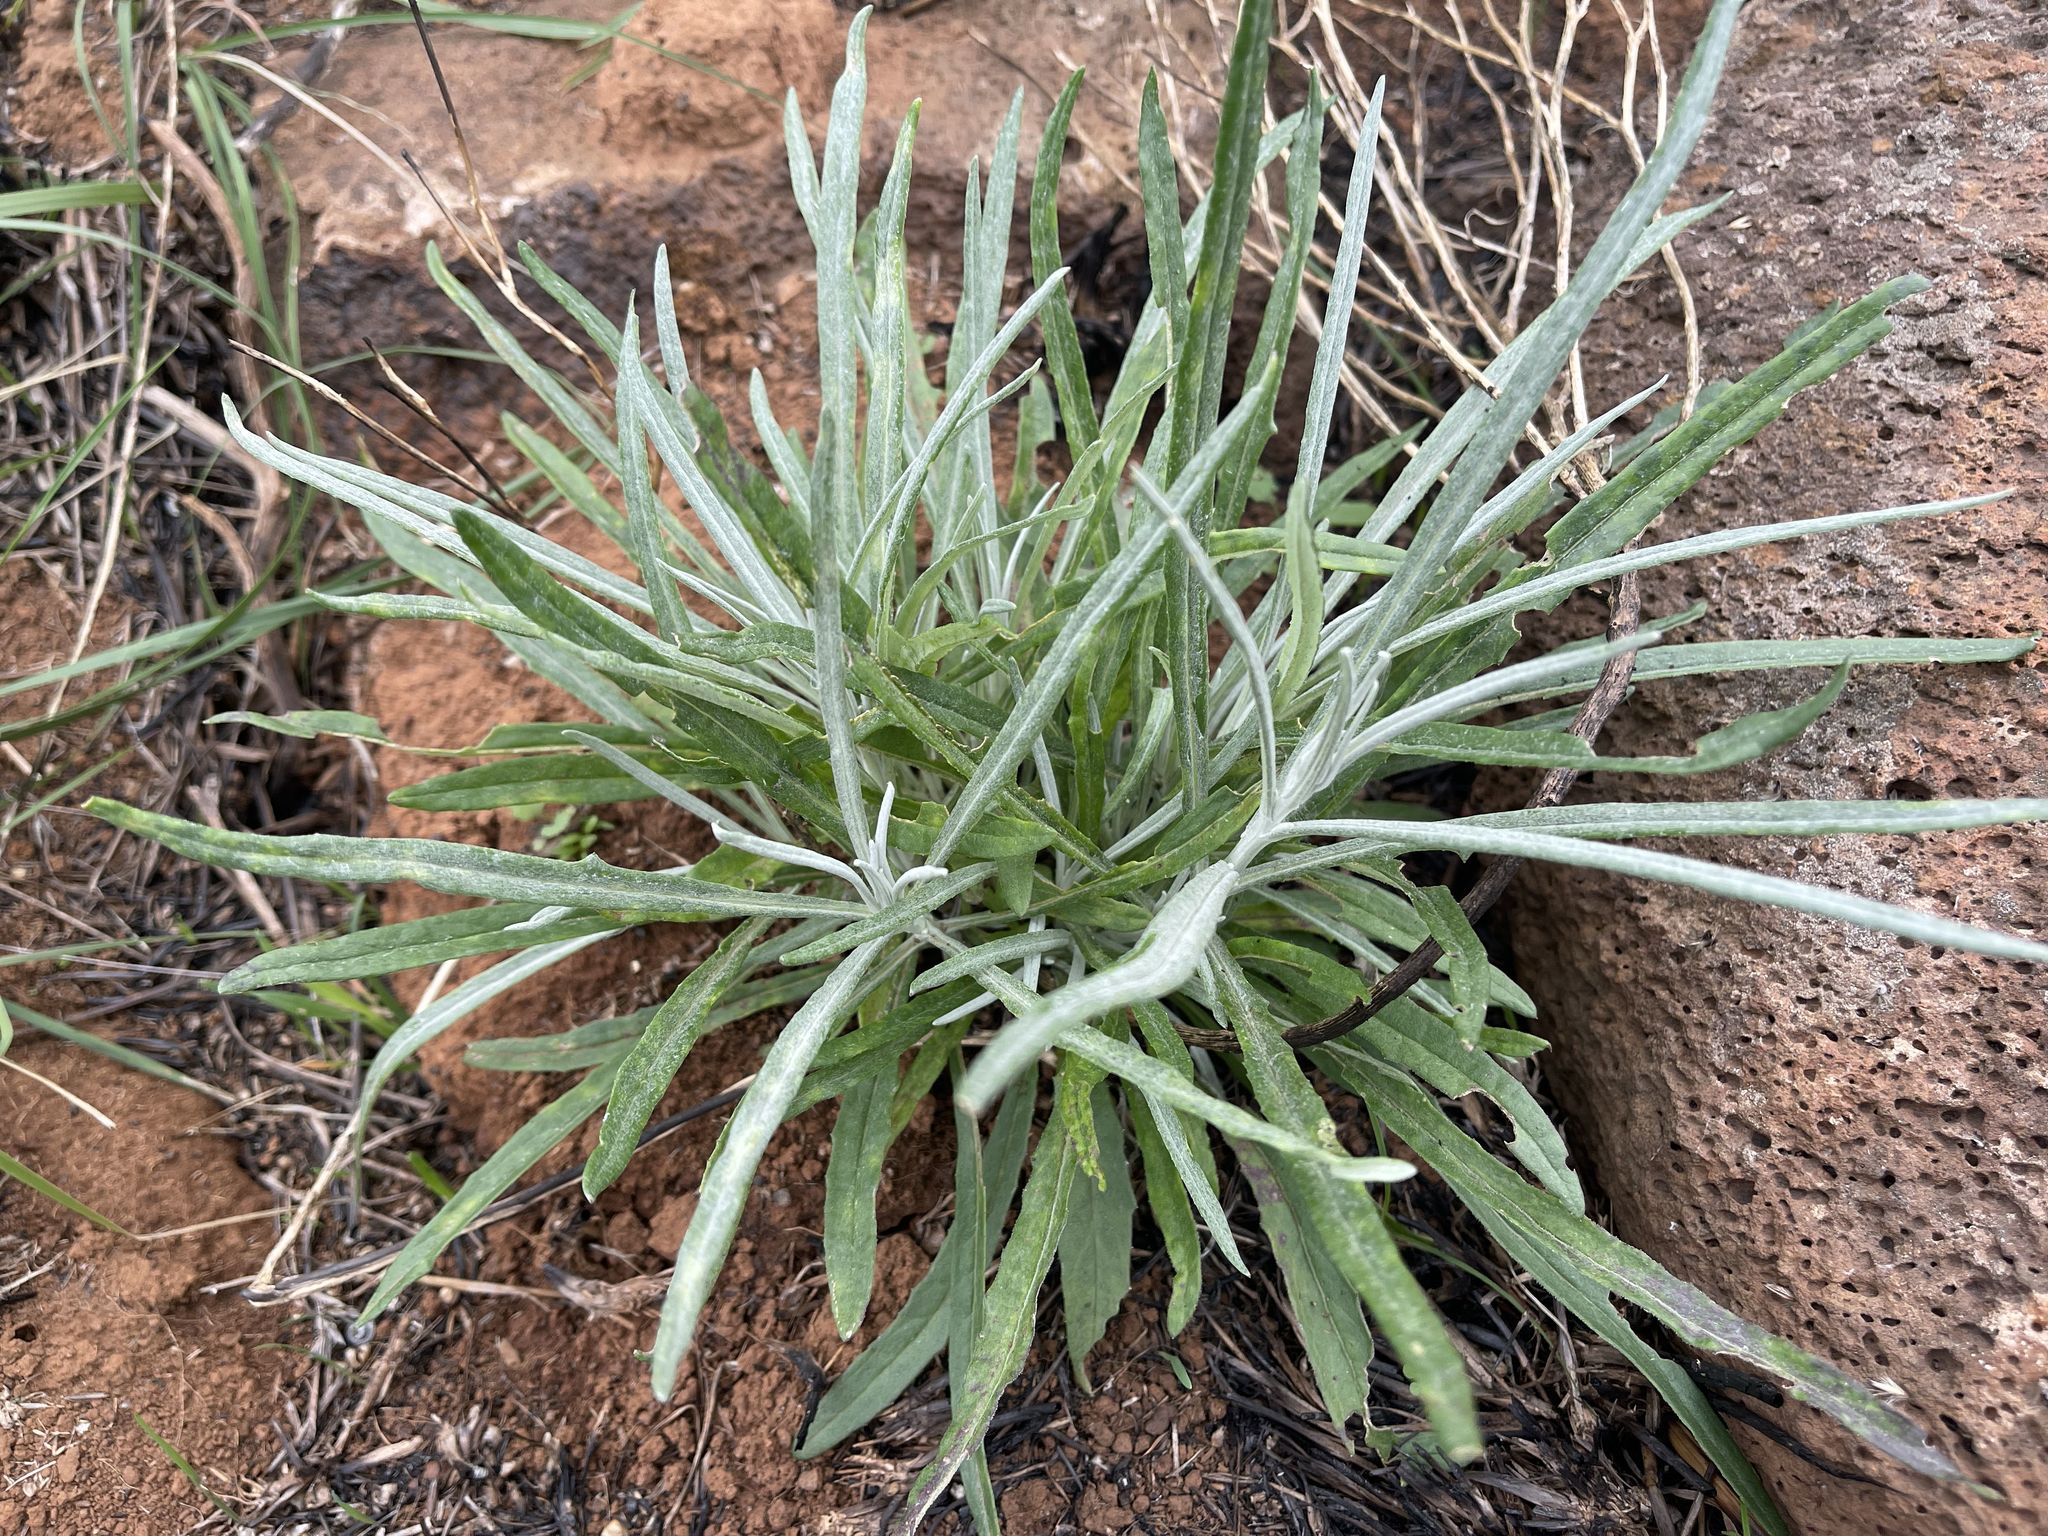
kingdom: Plantae
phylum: Tracheophyta
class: Magnoliopsida
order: Asterales
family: Asteraceae
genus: Senecio
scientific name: Senecio quadridentatus
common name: Cotton fireweed
